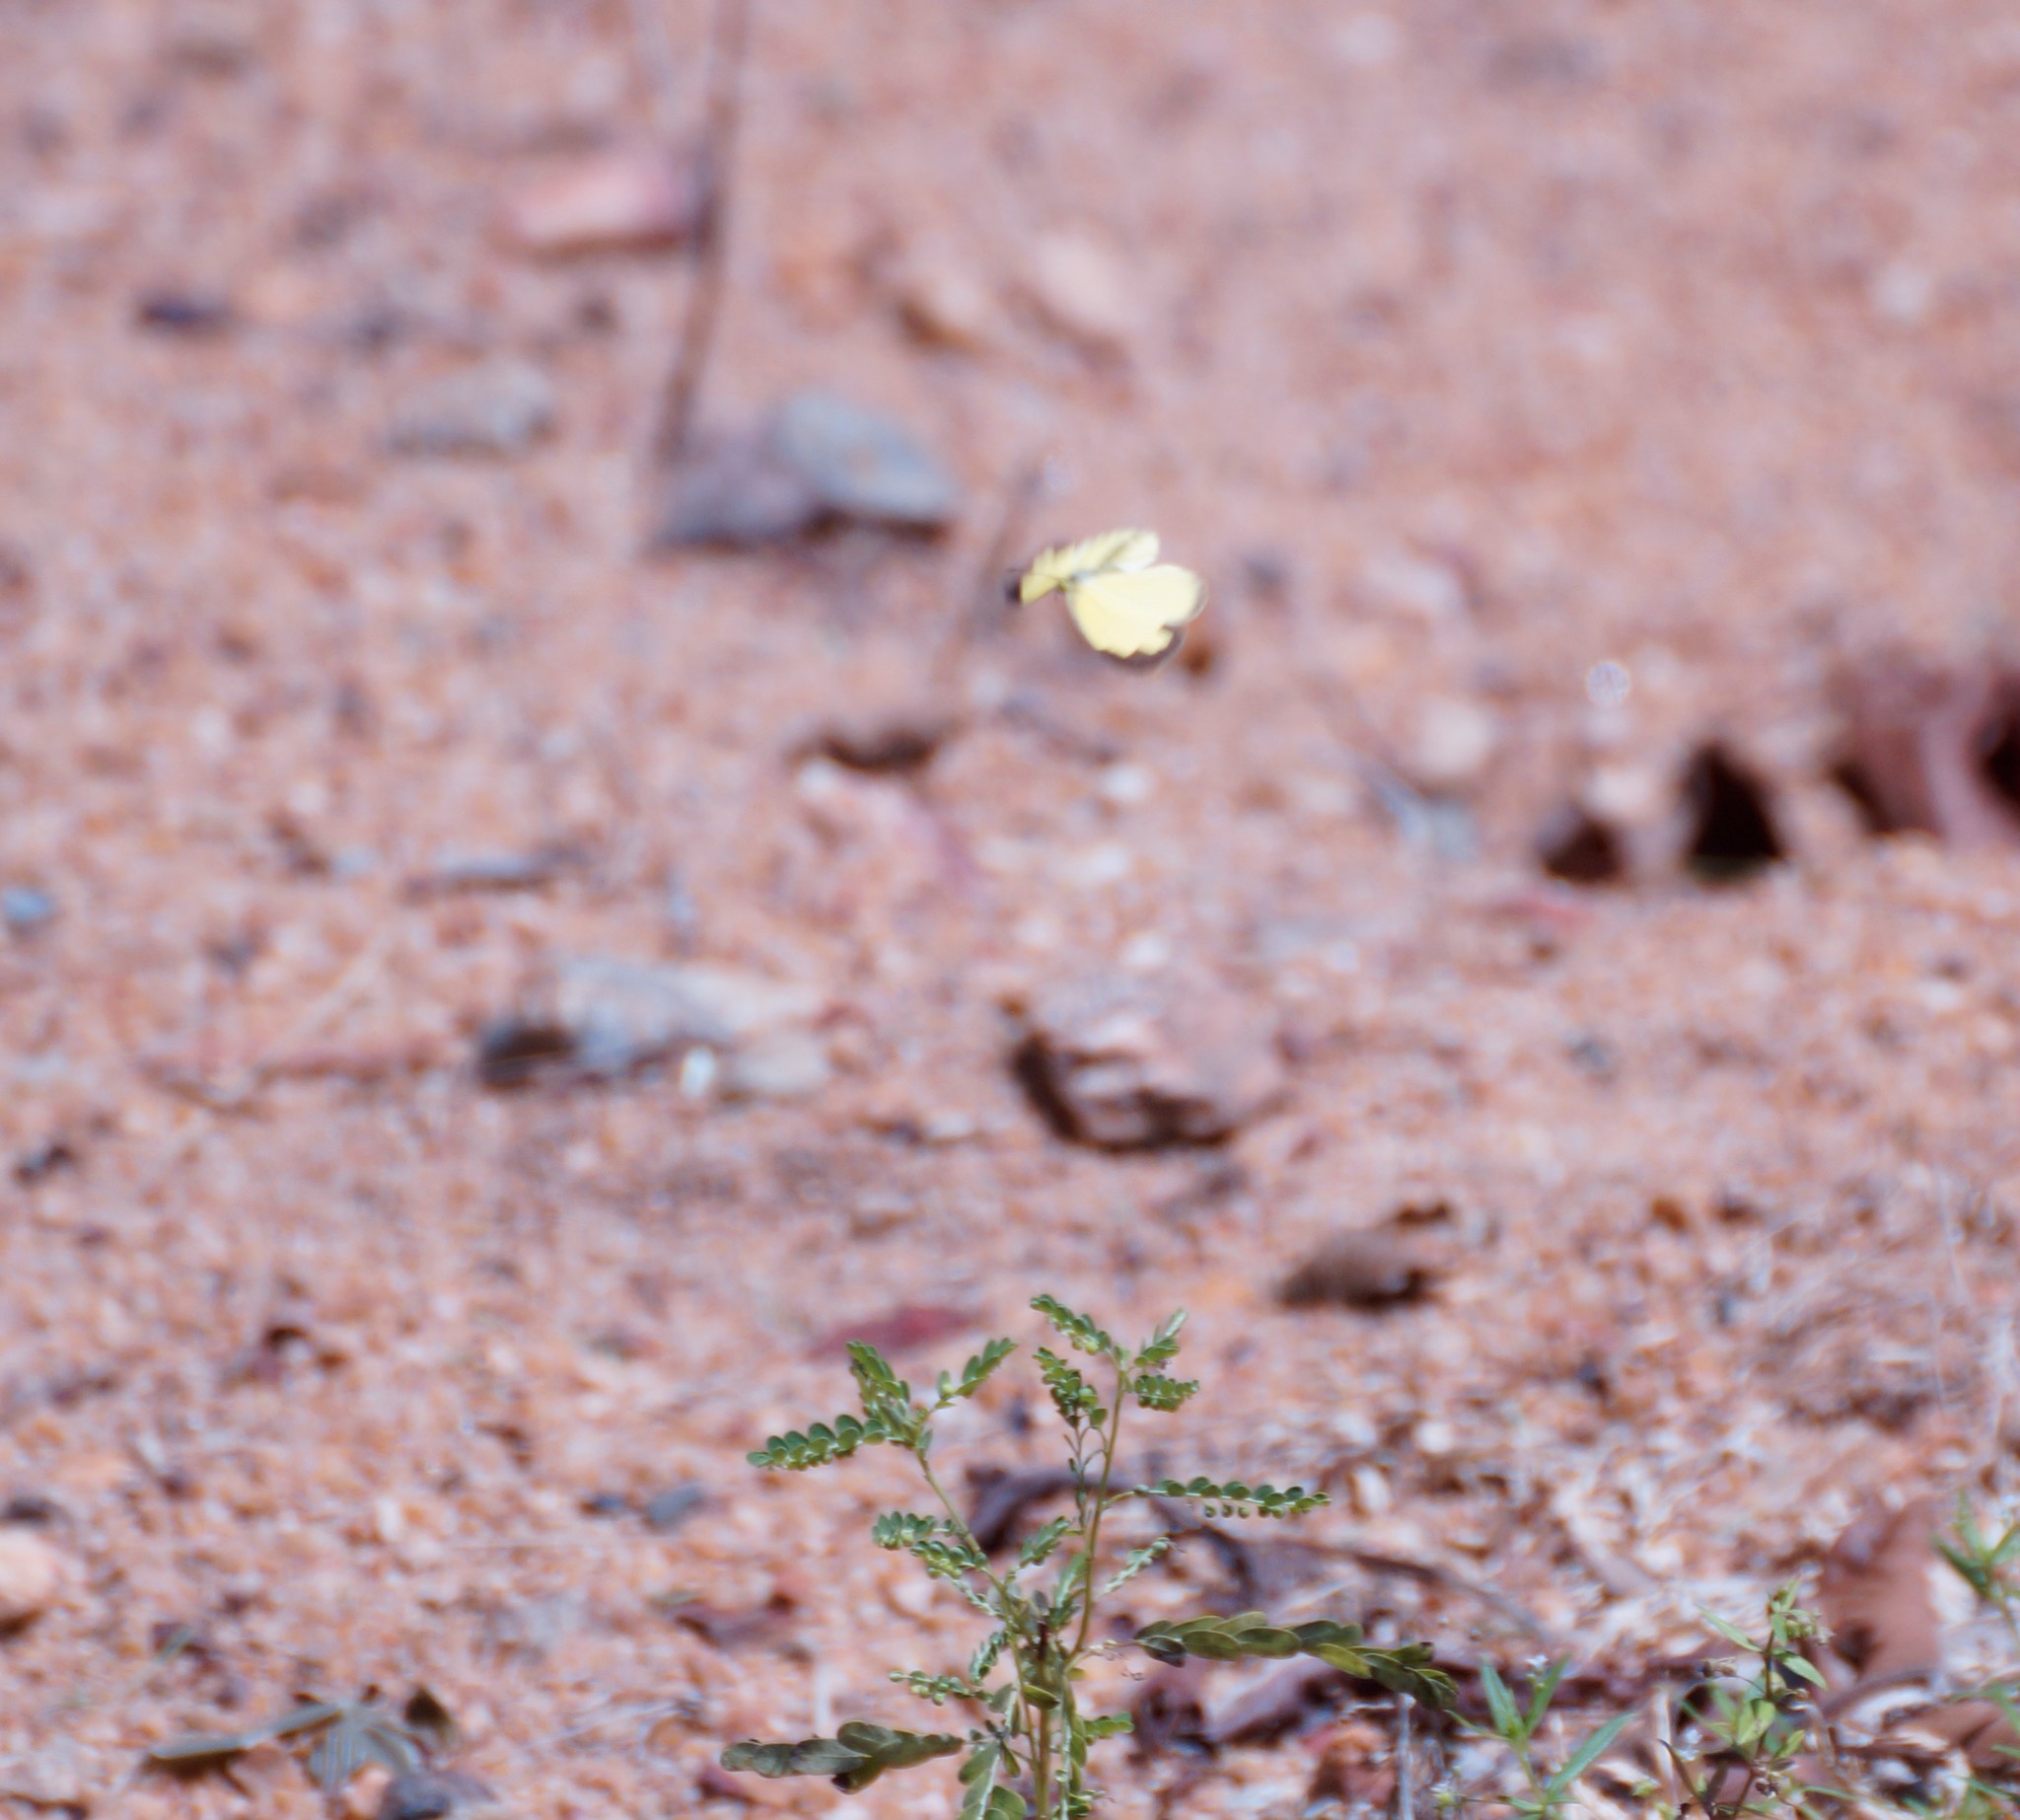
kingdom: Animalia
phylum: Arthropoda
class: Insecta
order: Lepidoptera
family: Pieridae
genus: Eurema
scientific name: Eurema hecabe
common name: Pale grass yellow
